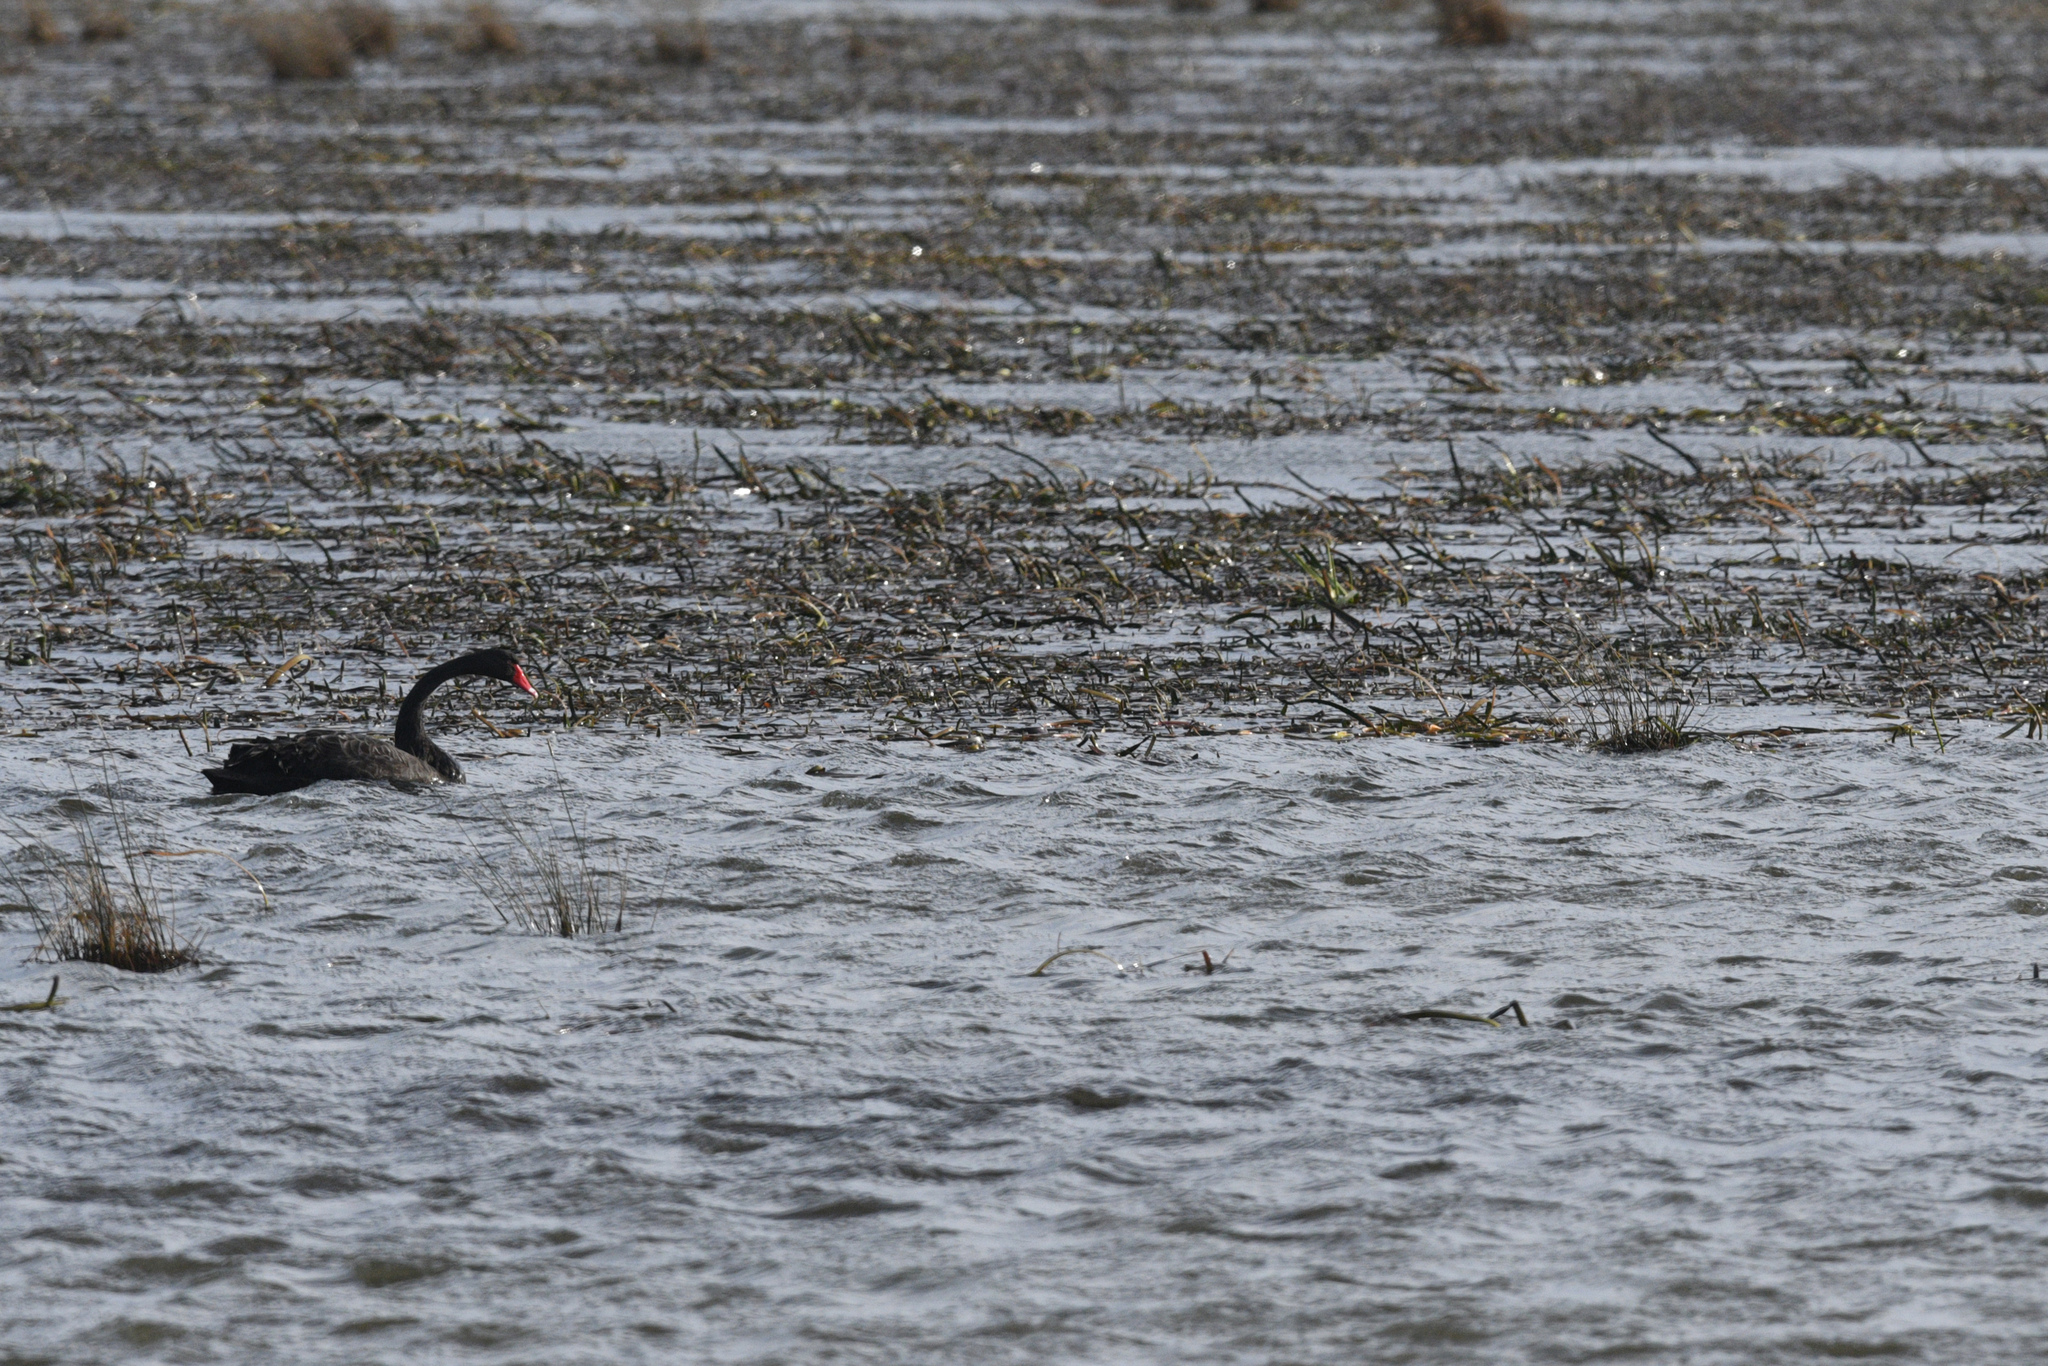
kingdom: Animalia
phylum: Chordata
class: Aves
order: Anseriformes
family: Anatidae
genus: Cygnus
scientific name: Cygnus atratus
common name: Black swan
